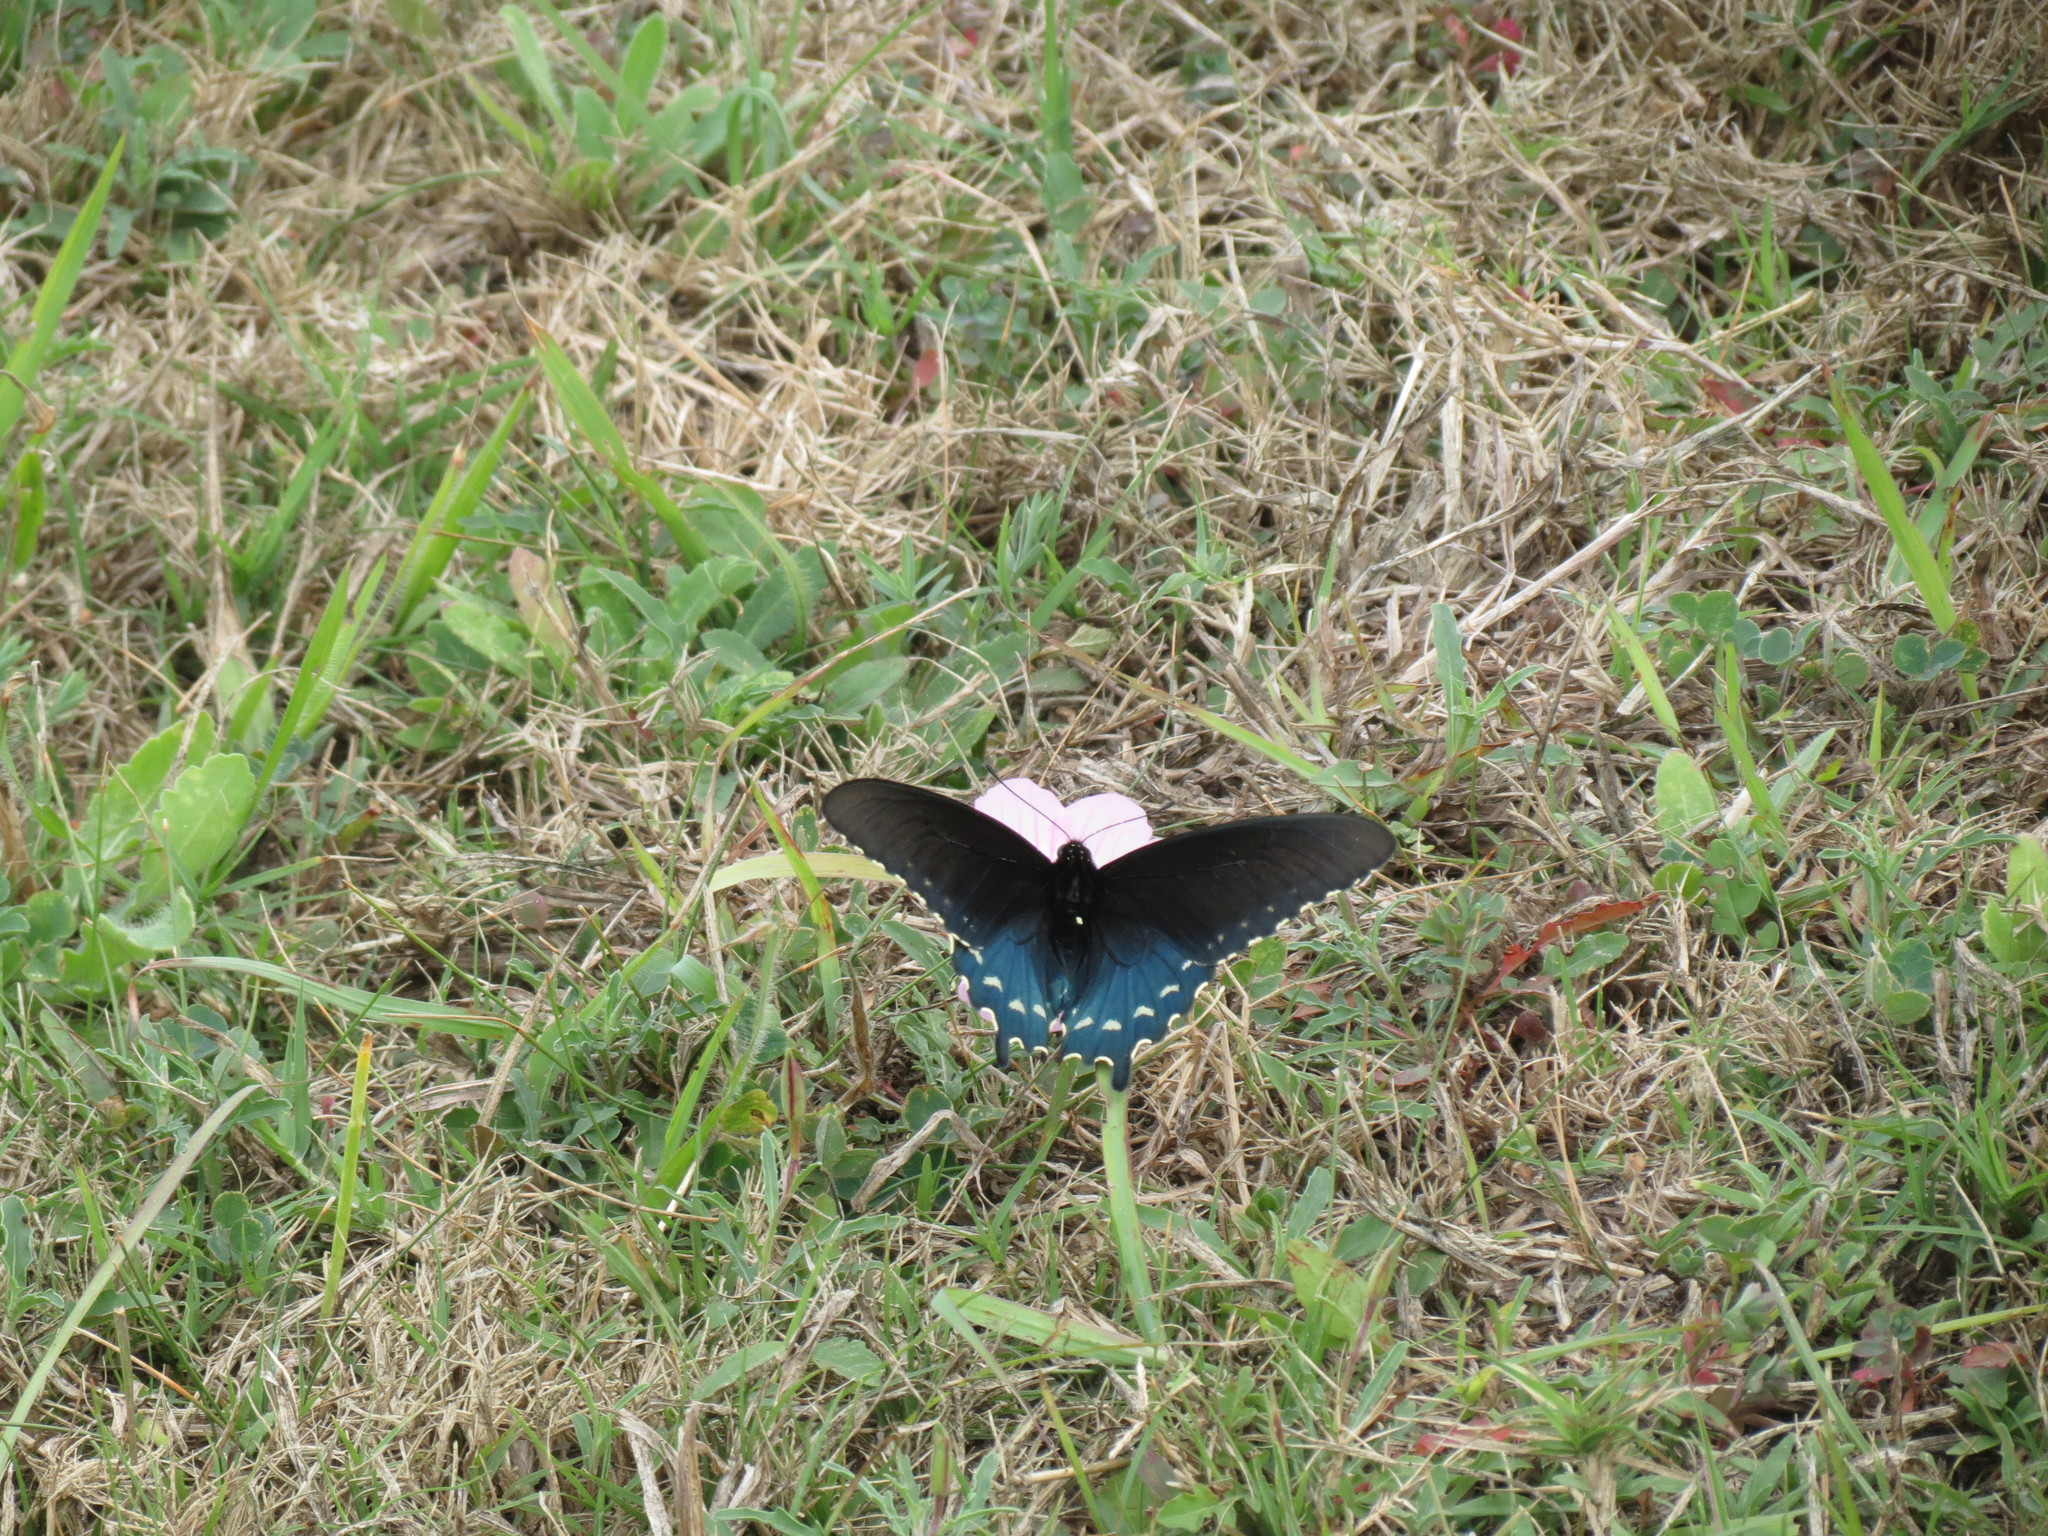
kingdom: Animalia
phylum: Arthropoda
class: Insecta
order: Lepidoptera
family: Papilionidae
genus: Battus
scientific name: Battus philenor
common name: Pipevine swallowtail
